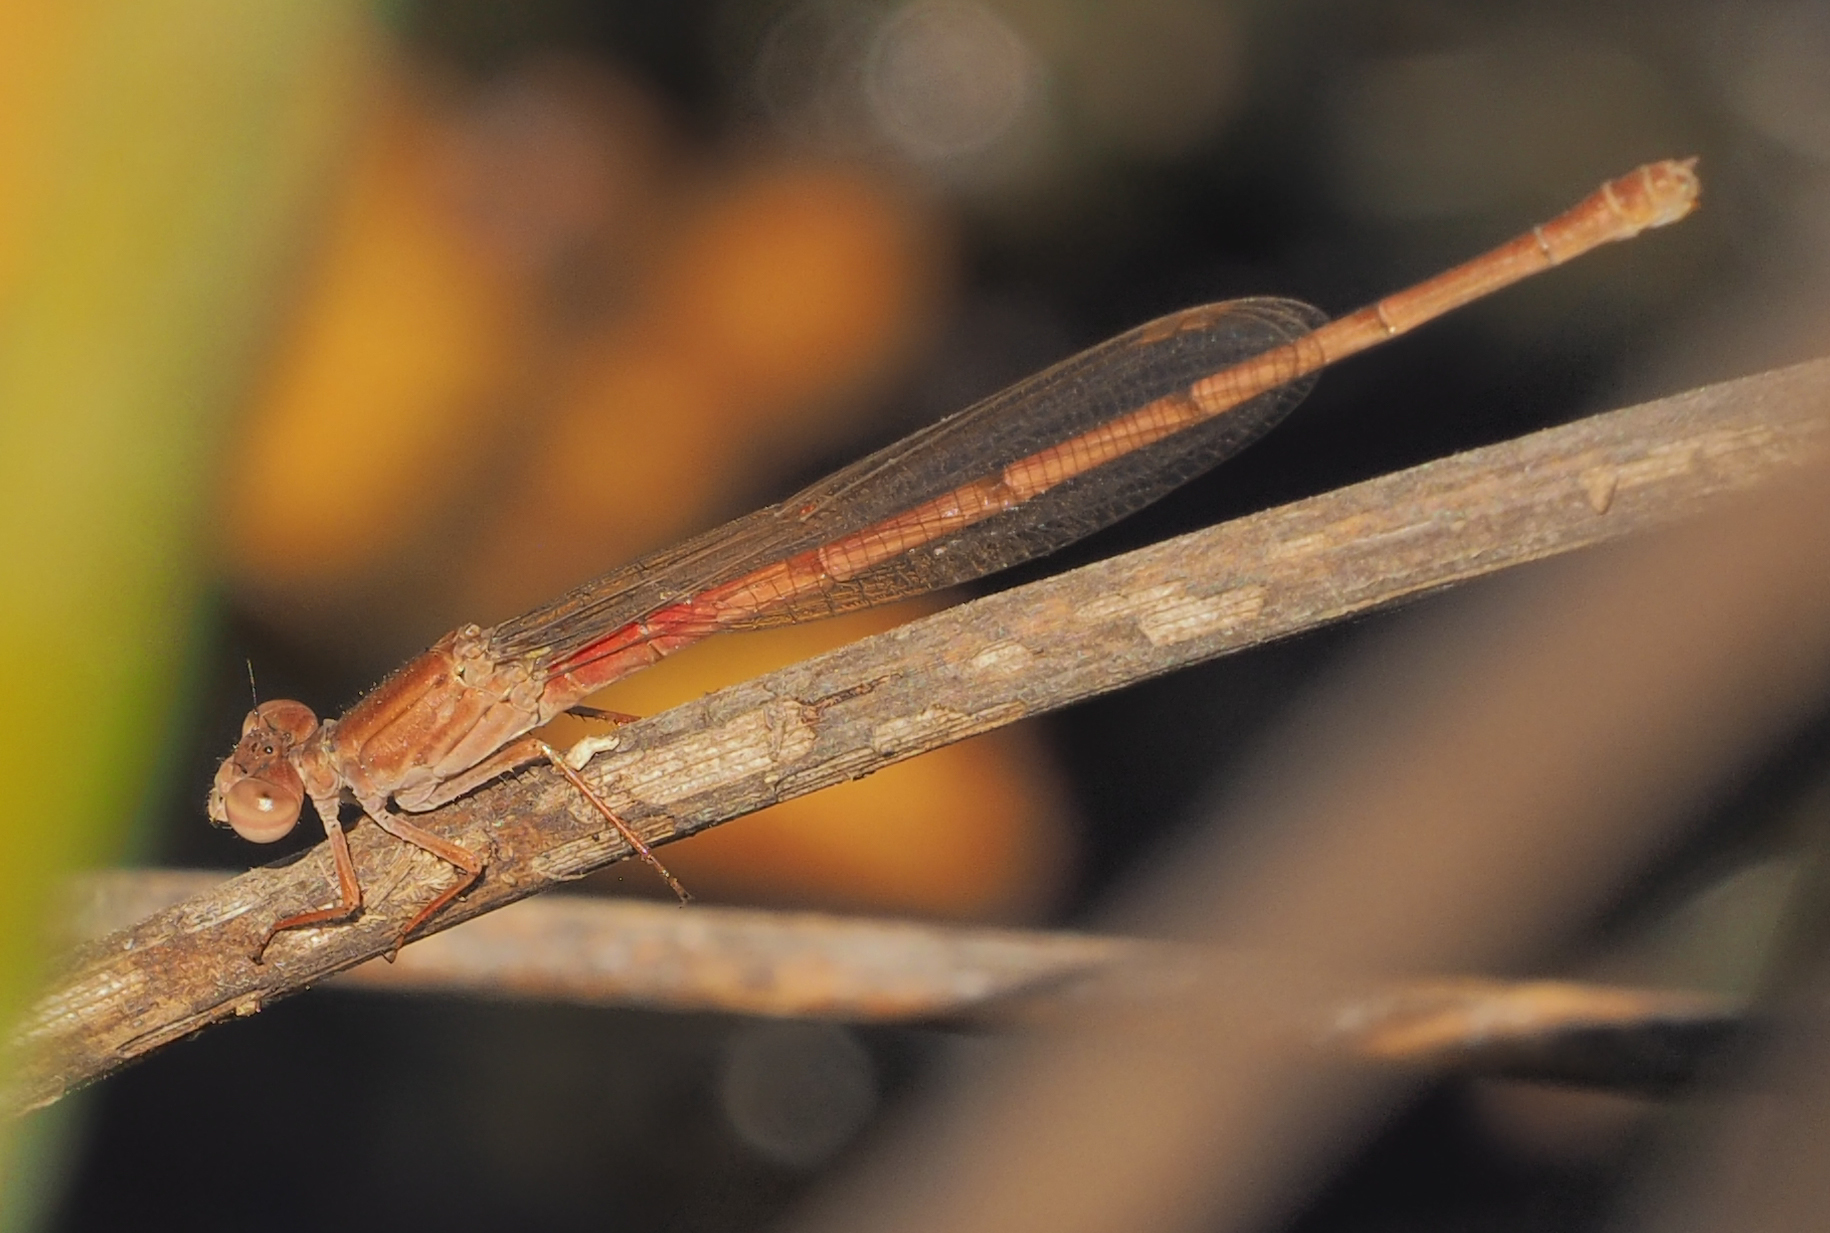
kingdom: Animalia
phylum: Arthropoda
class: Insecta
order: Odonata
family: Coenagrionidae
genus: Ceriagrion
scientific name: Ceriagrion katamborae
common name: White-faced waxtail
